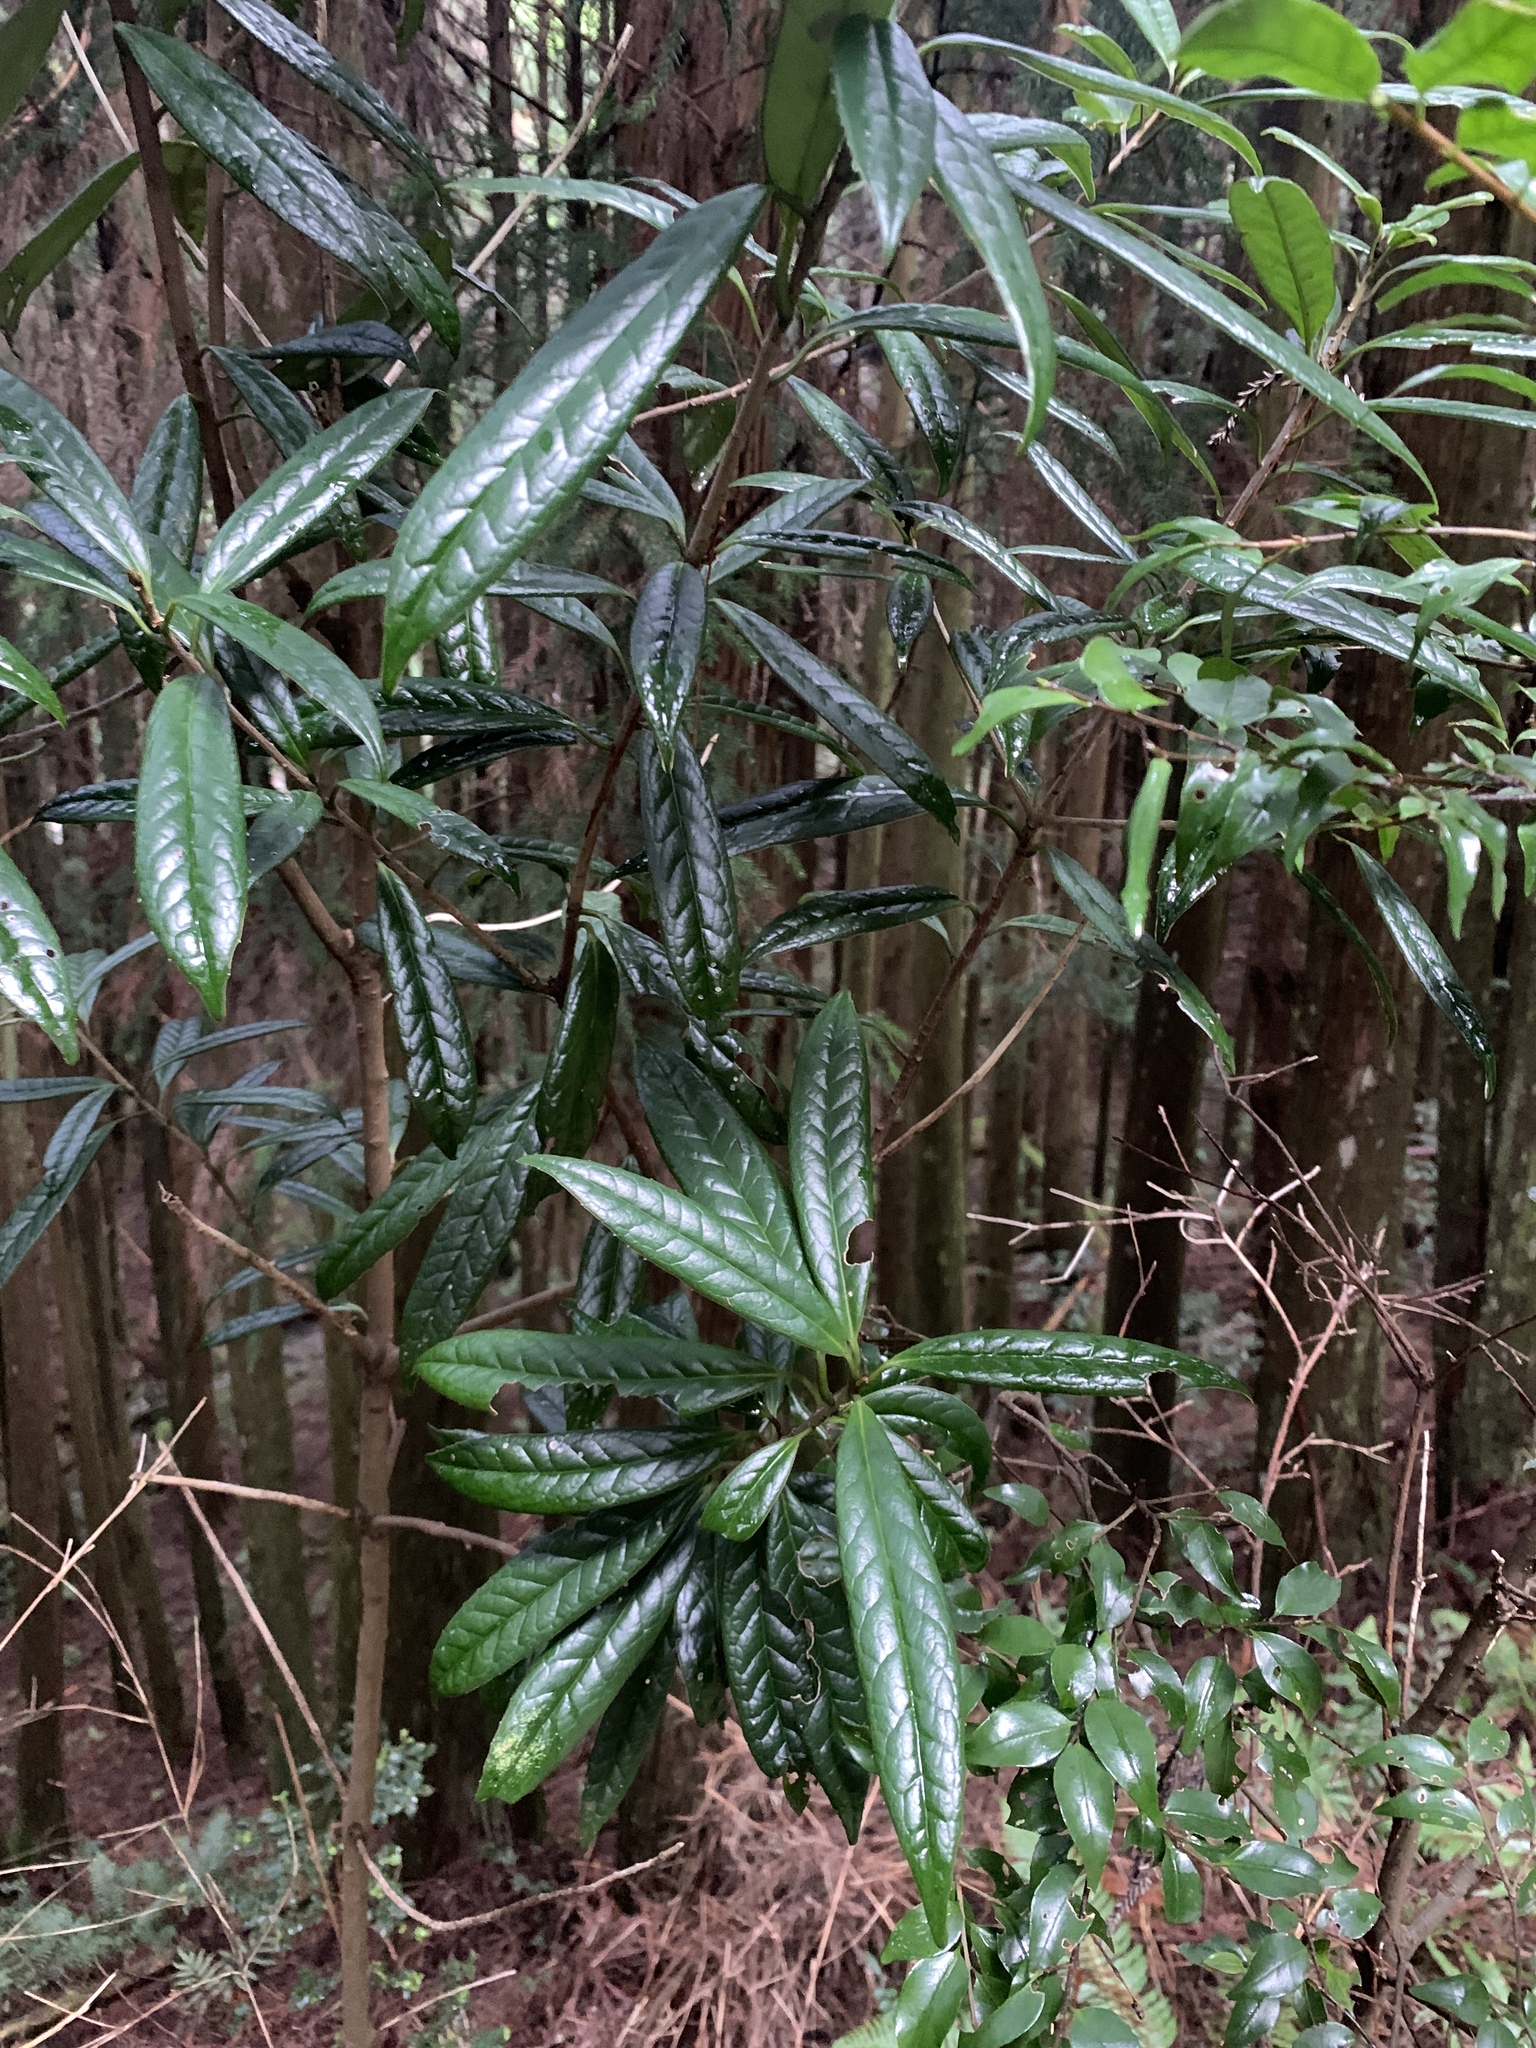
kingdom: Plantae
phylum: Tracheophyta
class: Magnoliopsida
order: Ericales
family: Symplocaceae
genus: Symplocos
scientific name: Symplocos stellaris
